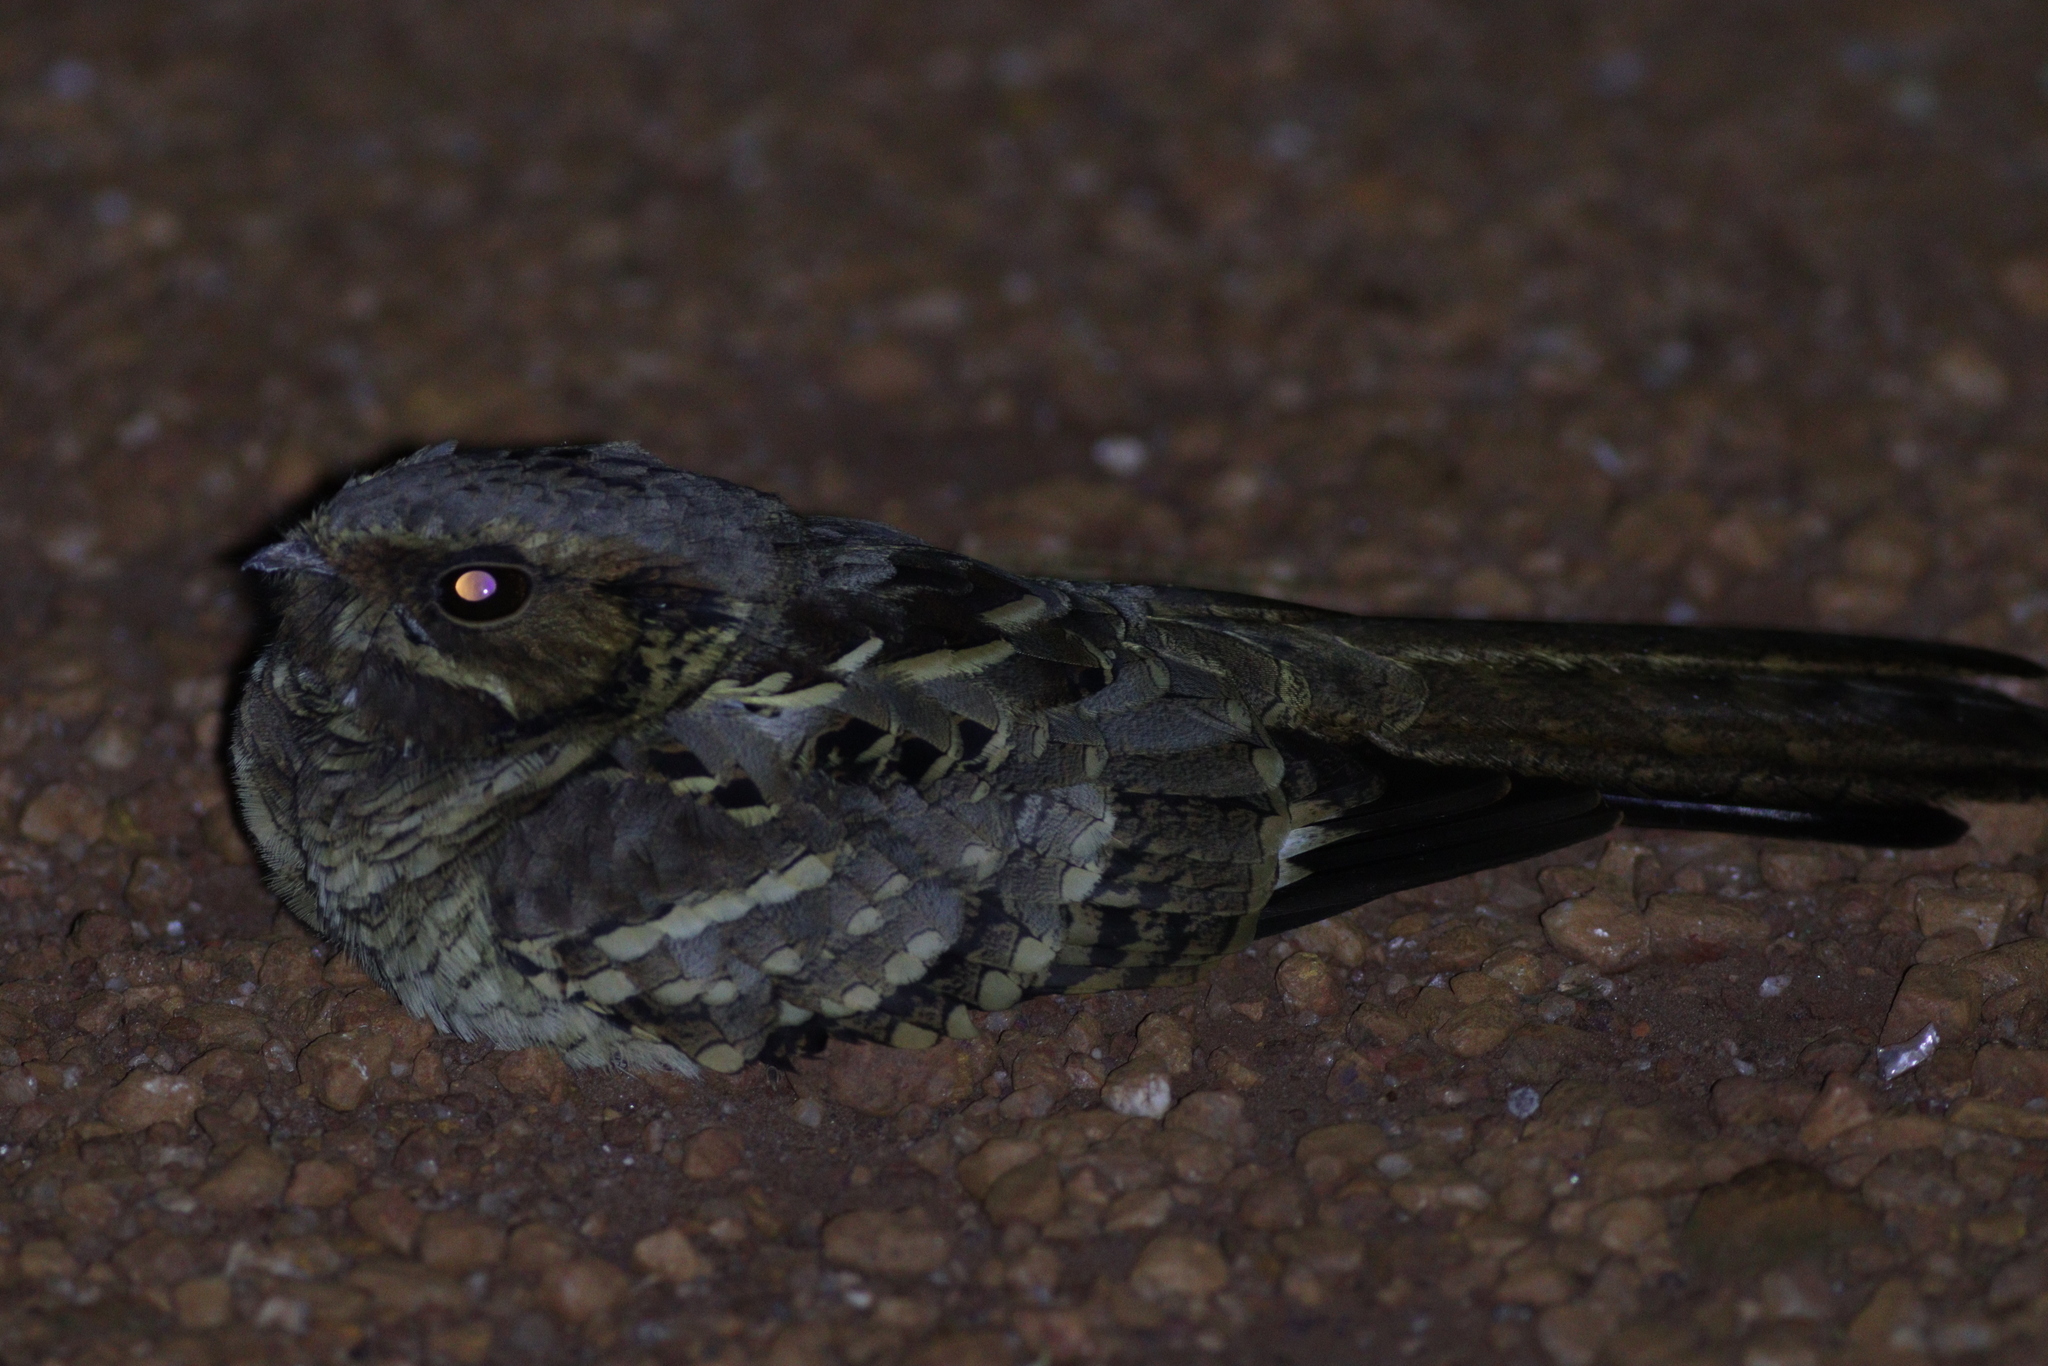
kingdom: Animalia
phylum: Chordata
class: Aves
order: Caprimulgiformes
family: Caprimulgidae
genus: Nyctidromus
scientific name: Nyctidromus albicollis
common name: Pauraque
